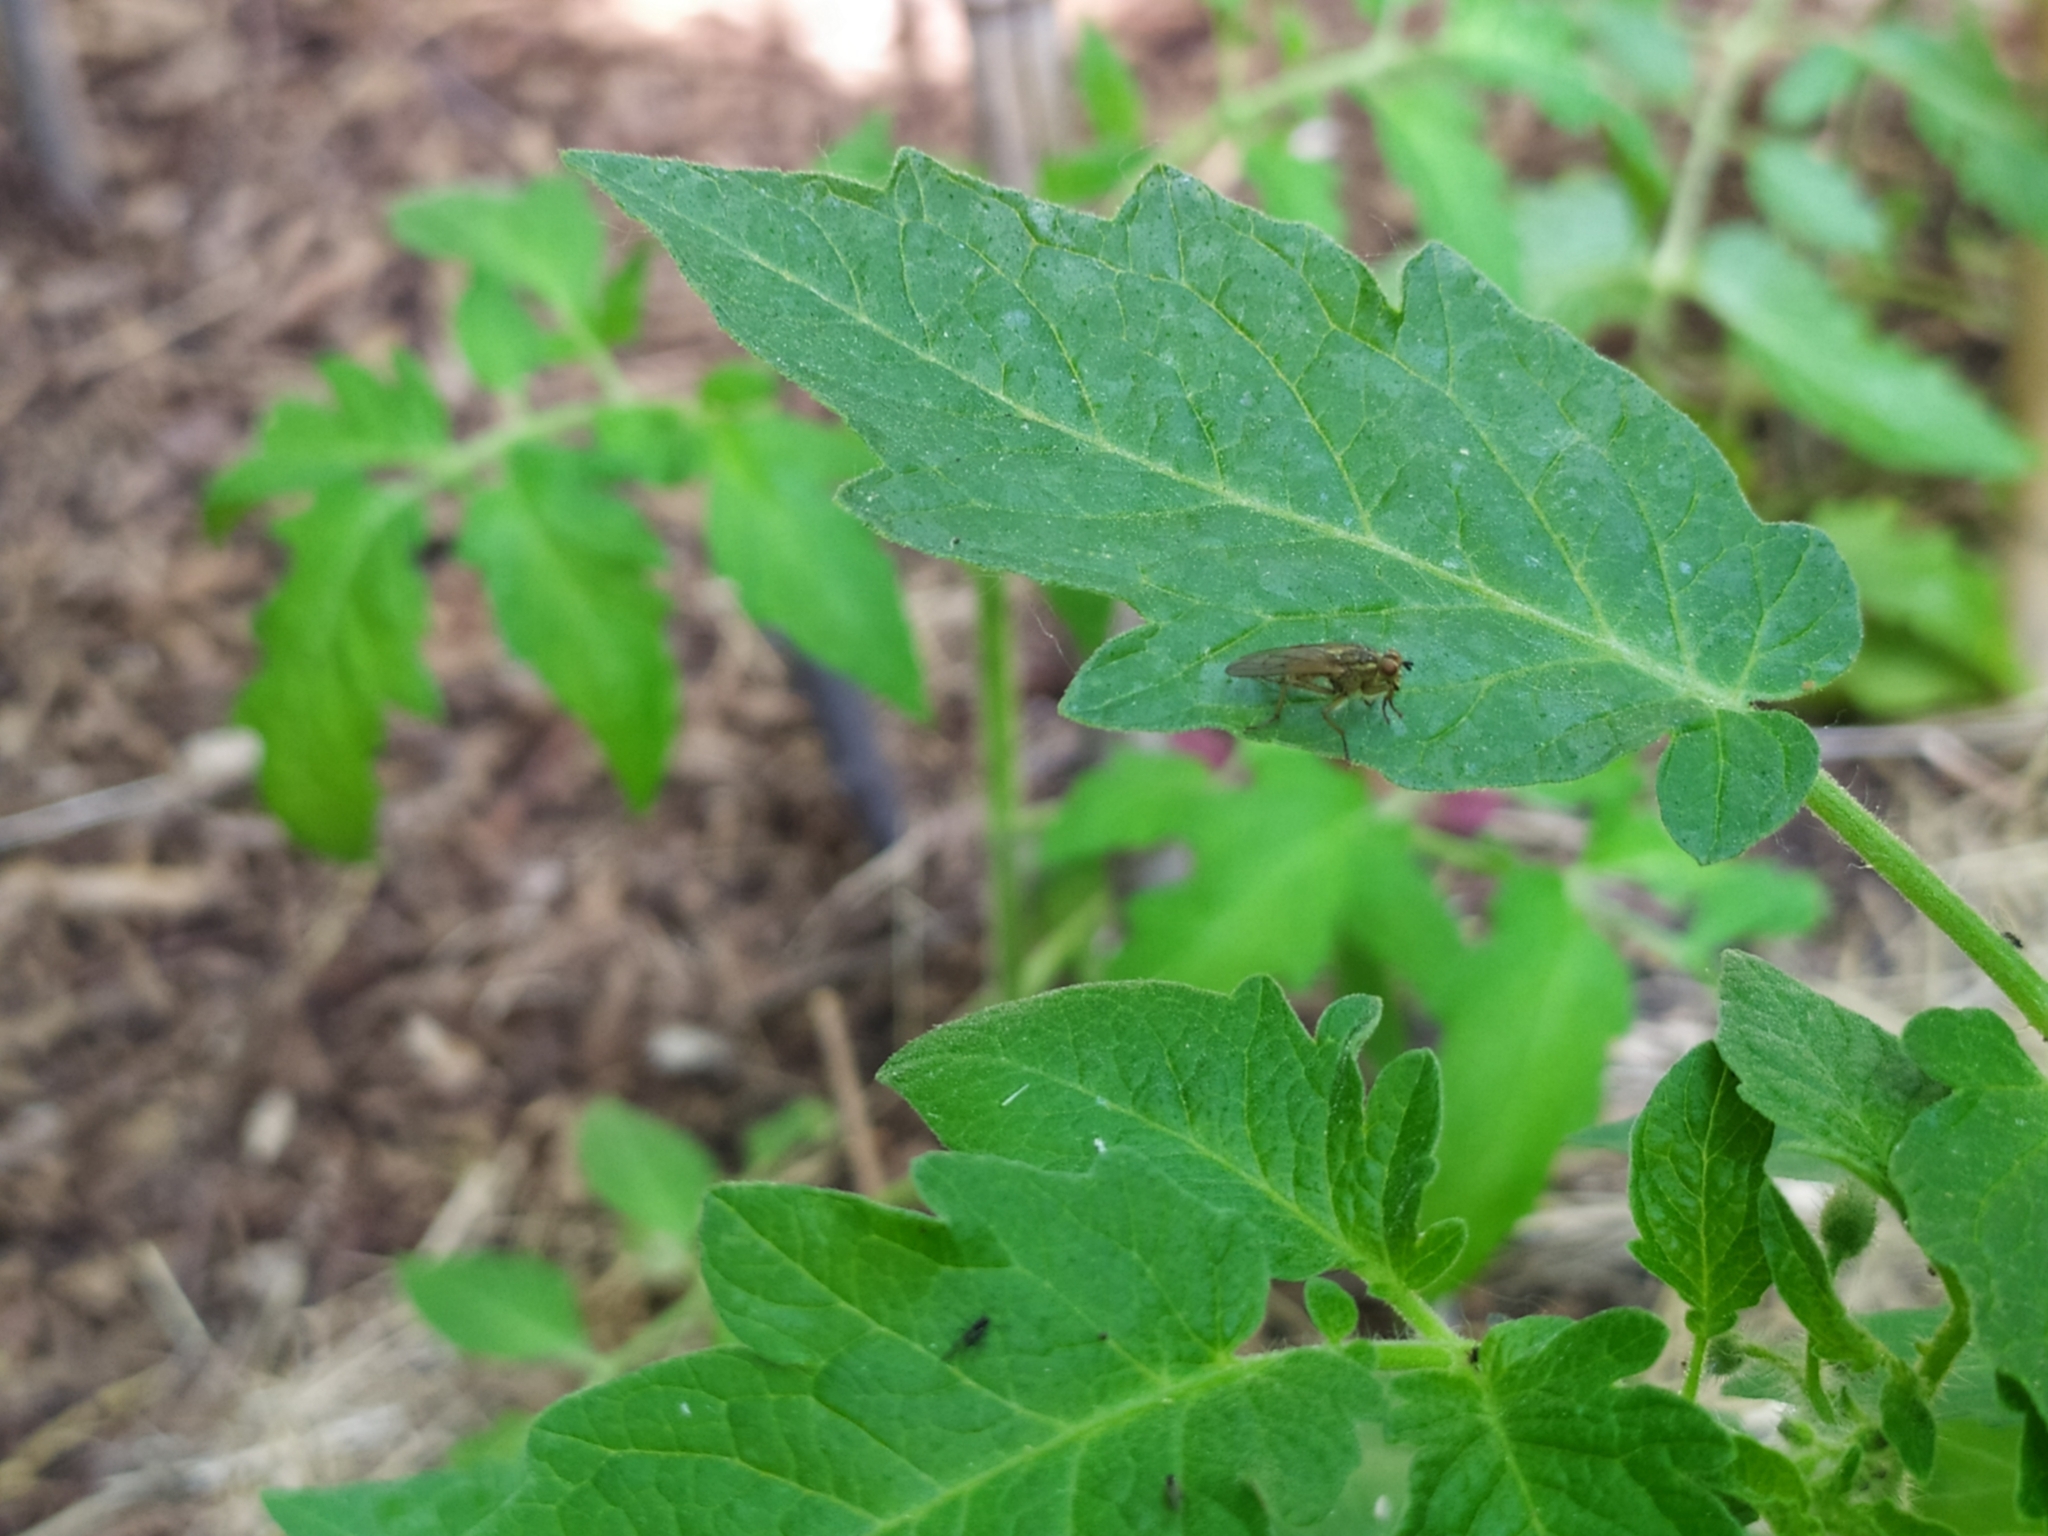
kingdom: Animalia
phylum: Arthropoda
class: Insecta
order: Diptera
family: Scathophagidae
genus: Scathophaga
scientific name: Scathophaga stercoraria
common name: Yellow dung fly
